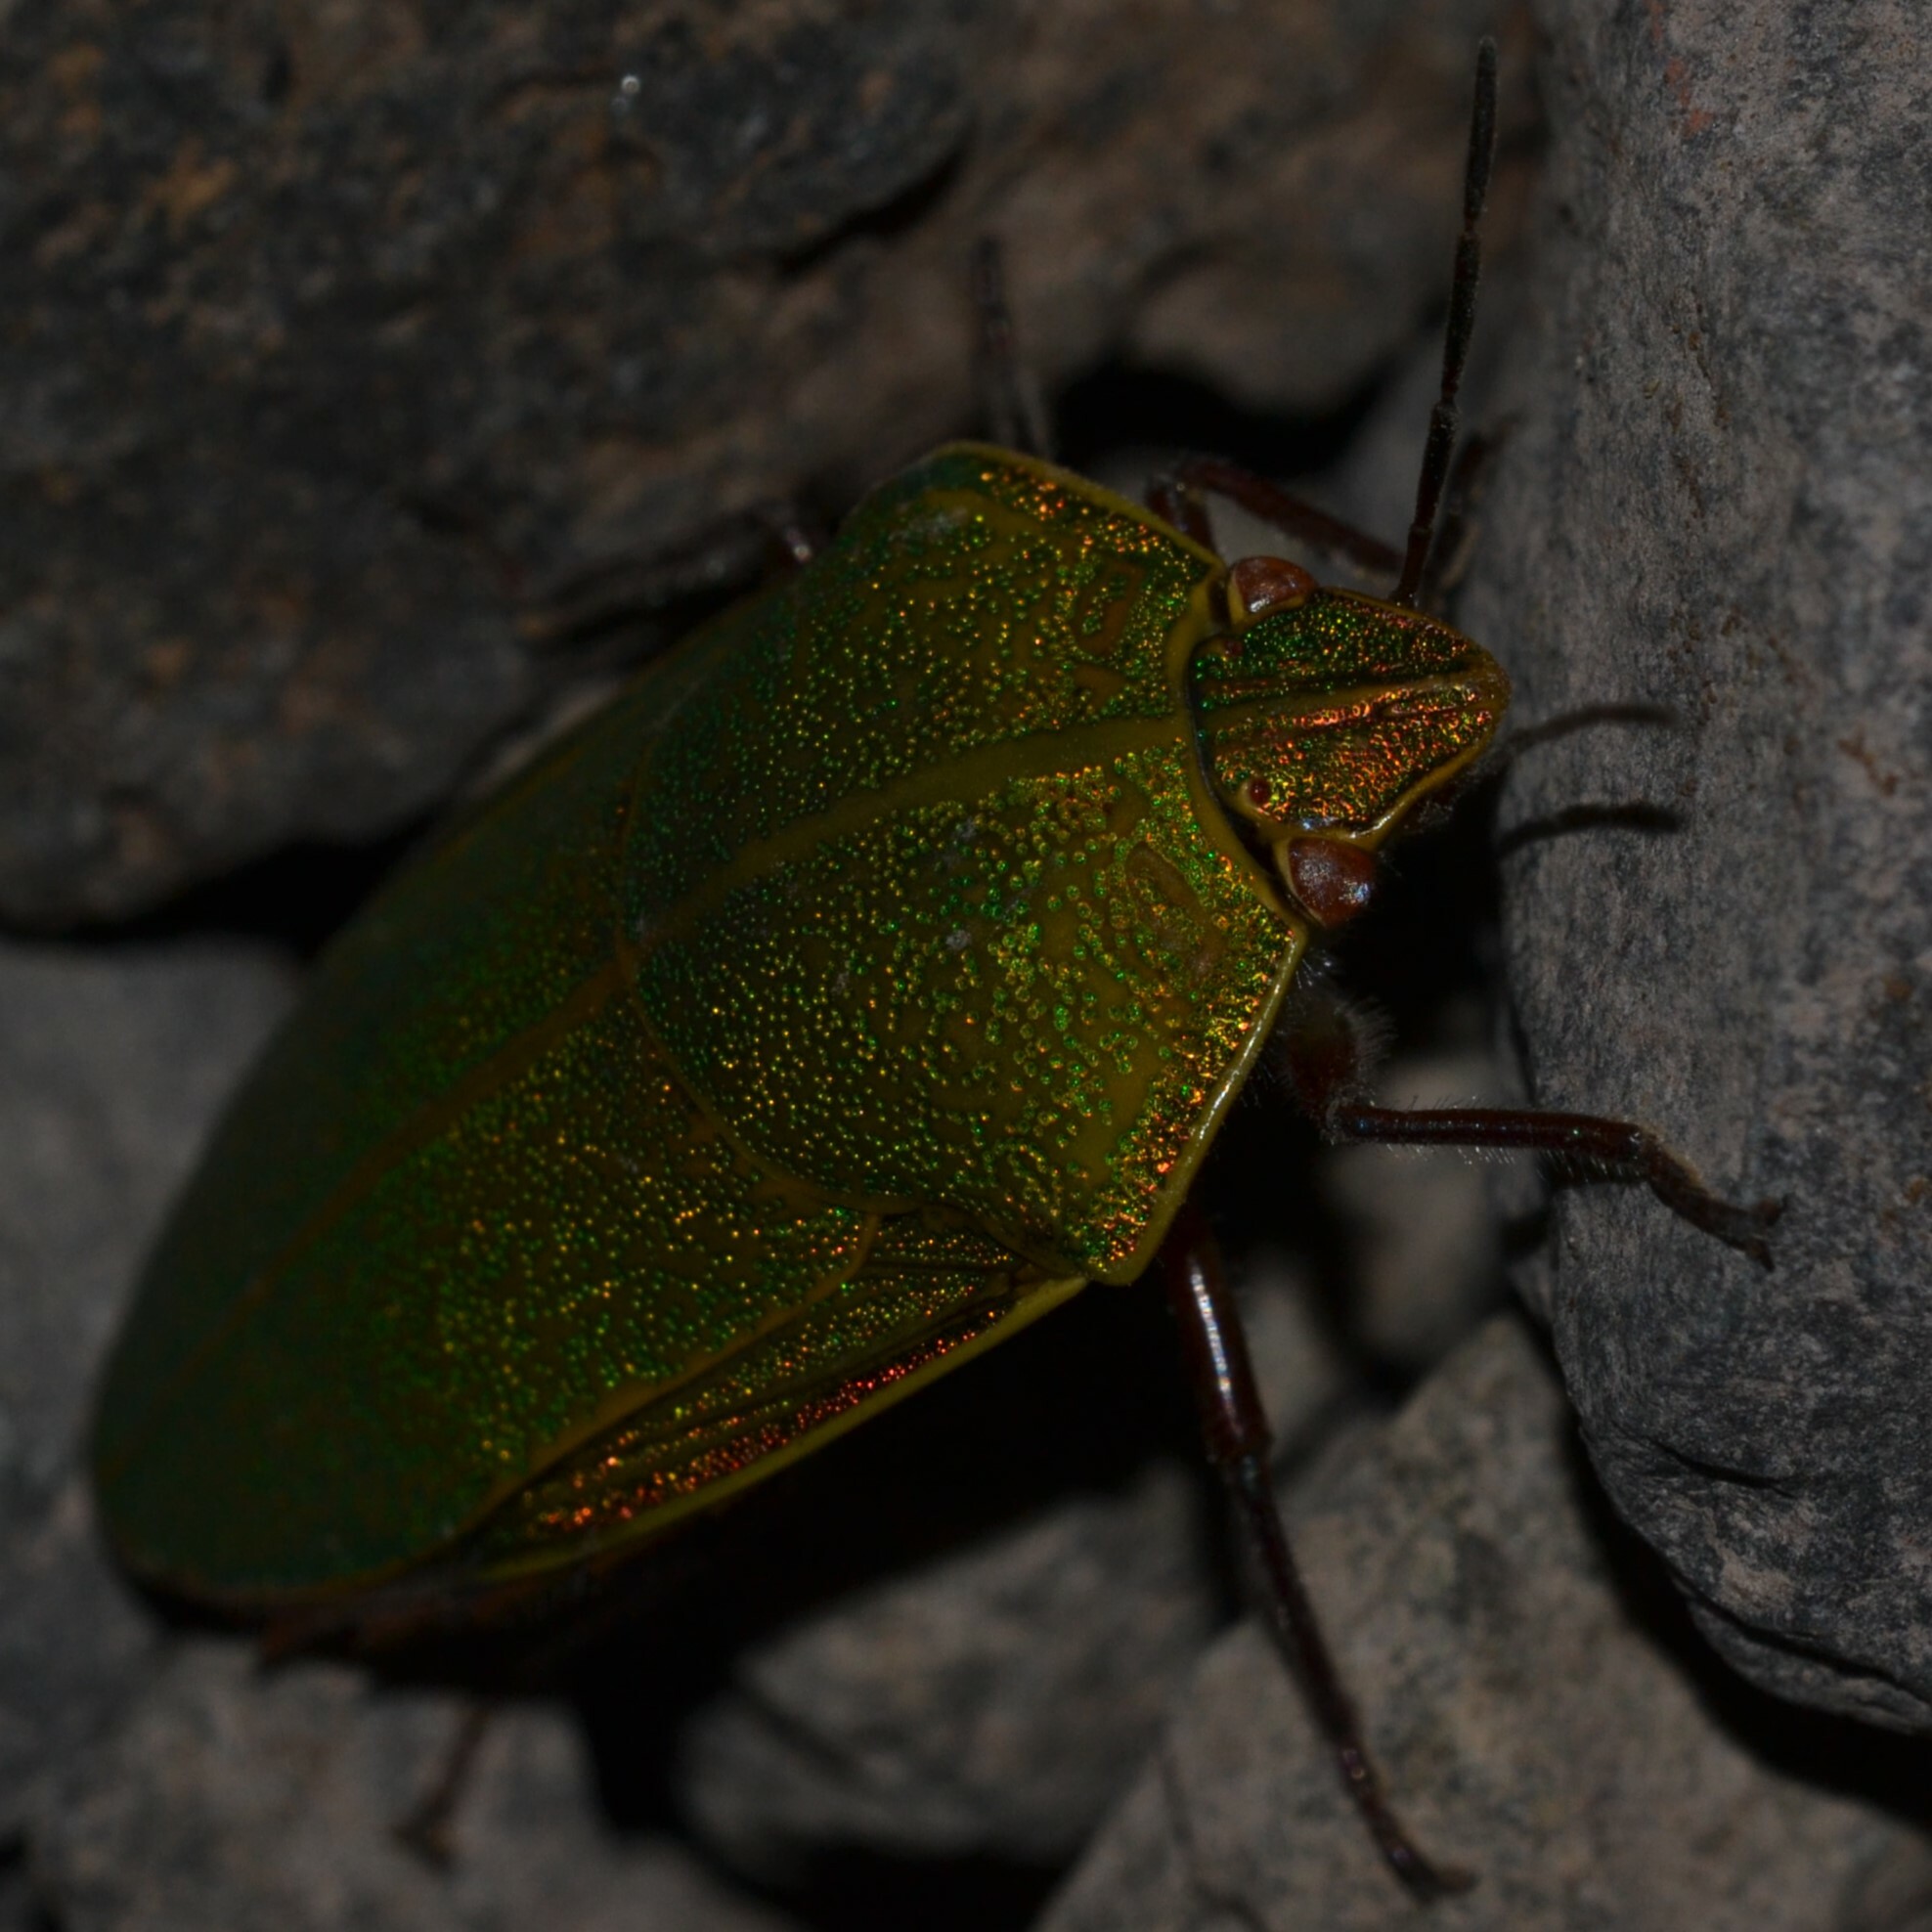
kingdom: Animalia
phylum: Arthropoda
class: Insecta
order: Hemiptera
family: Pentatomidae
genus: Coleotichus
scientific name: Coleotichus blackburniae
